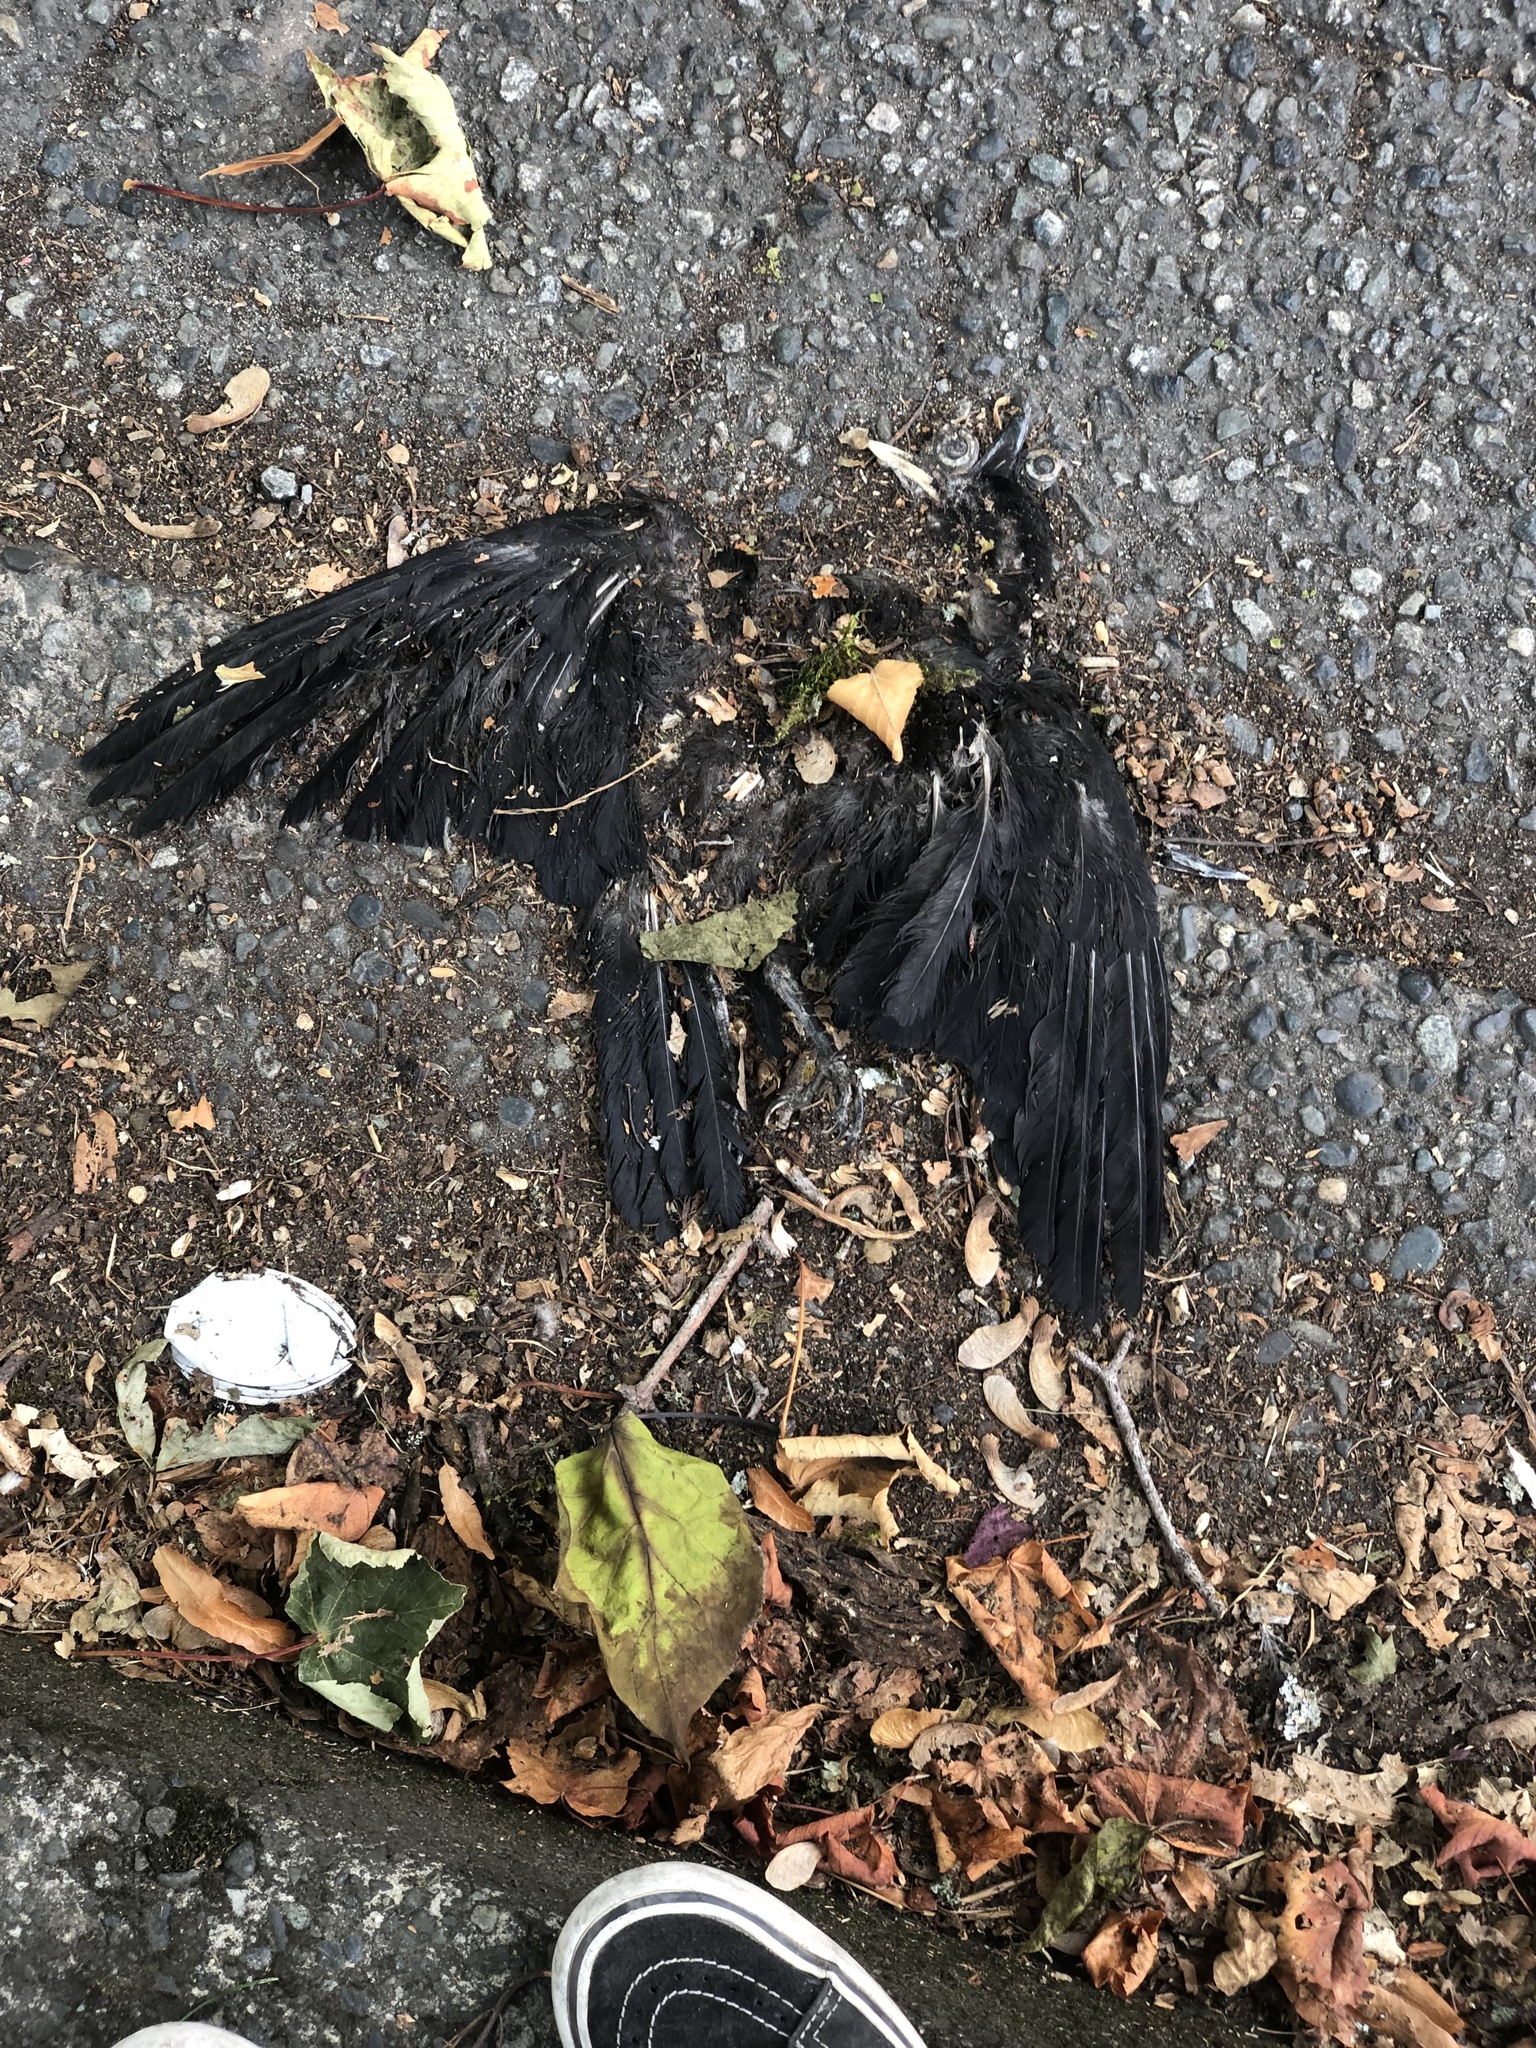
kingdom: Animalia
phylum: Chordata
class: Aves
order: Passeriformes
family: Corvidae
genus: Corvus
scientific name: Corvus brachyrhynchos
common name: American crow
